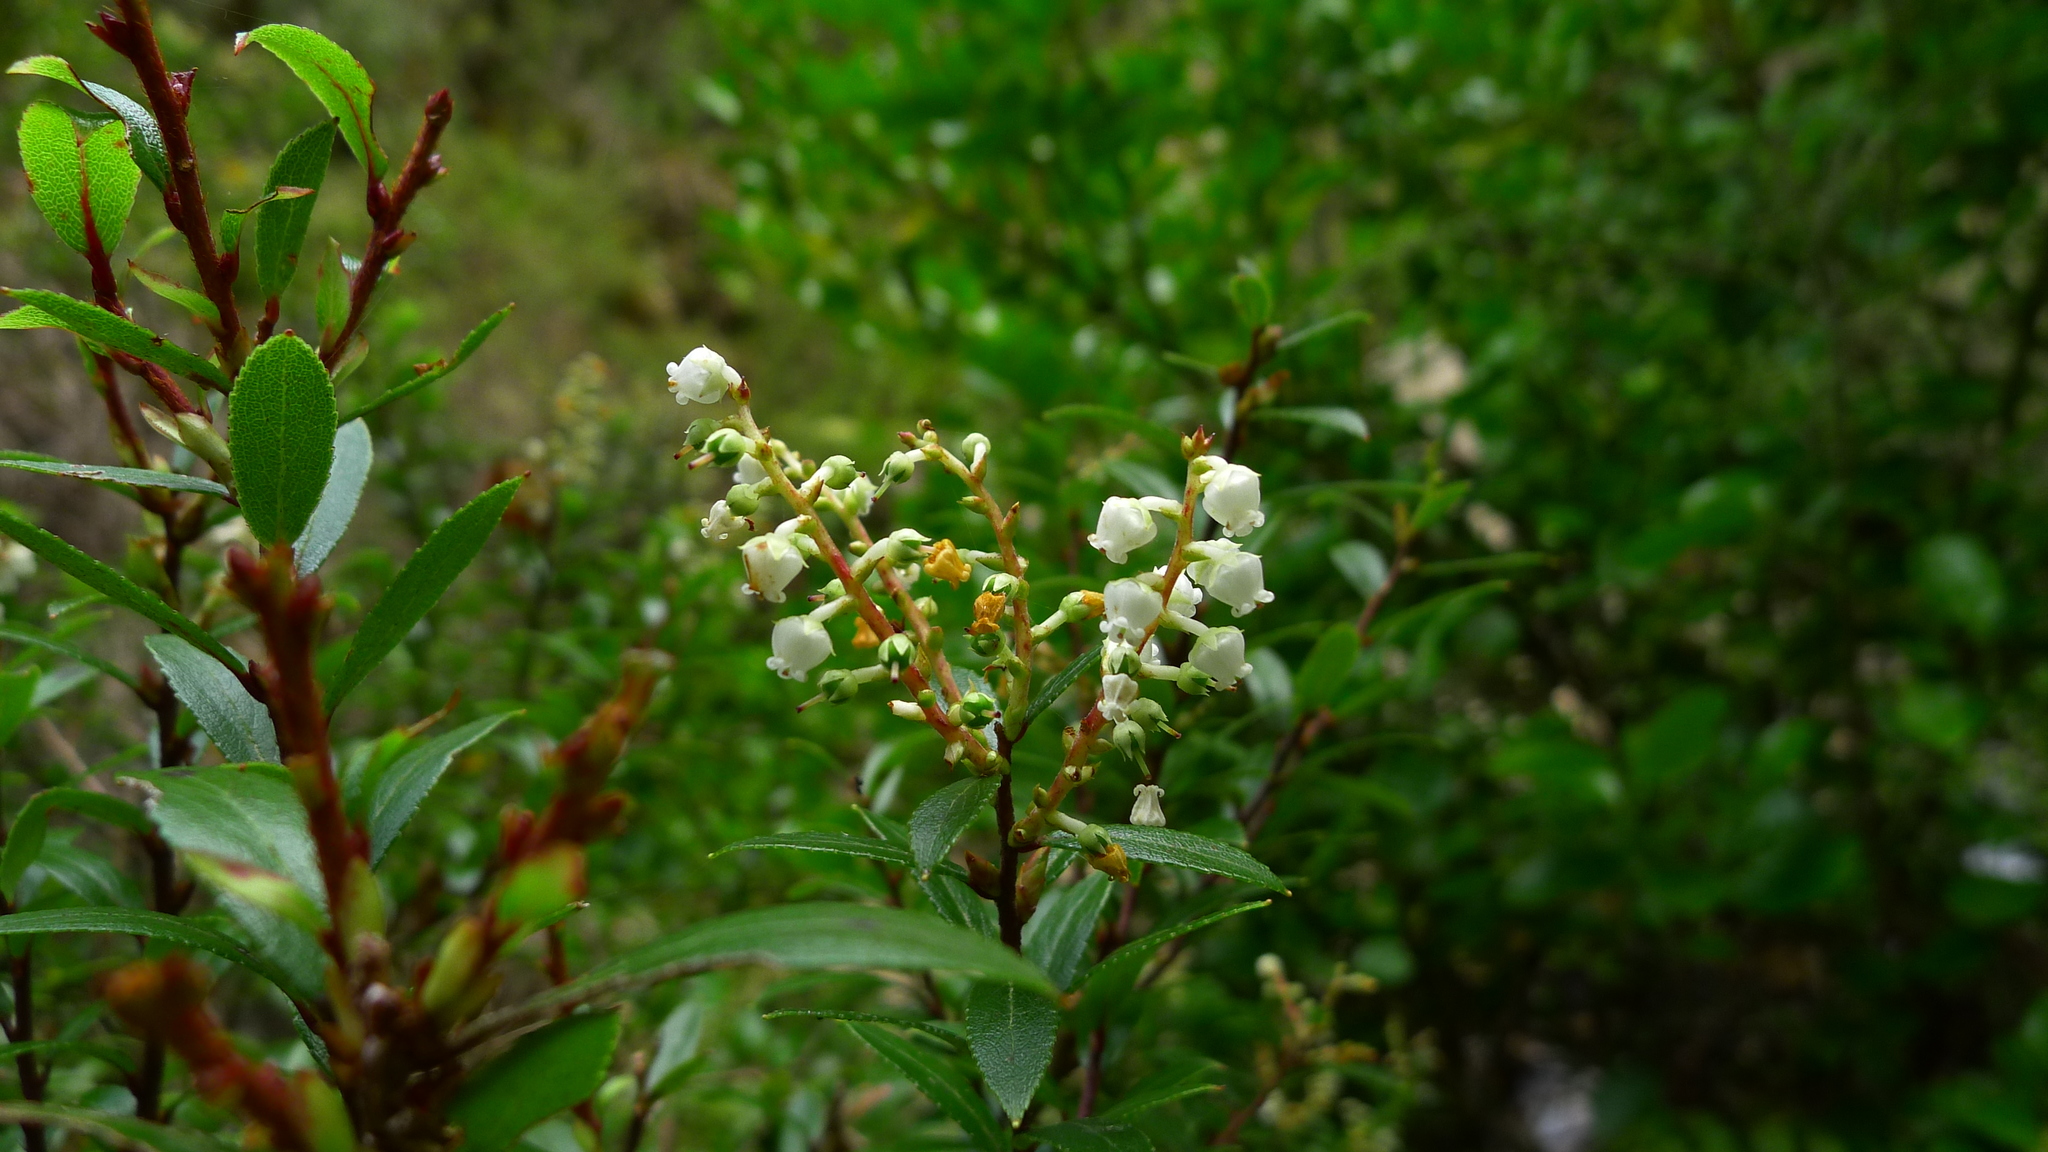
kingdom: Plantae
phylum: Tracheophyta
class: Magnoliopsida
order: Ericales
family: Ericaceae
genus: Gaultheria
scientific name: Gaultheria rupestris
